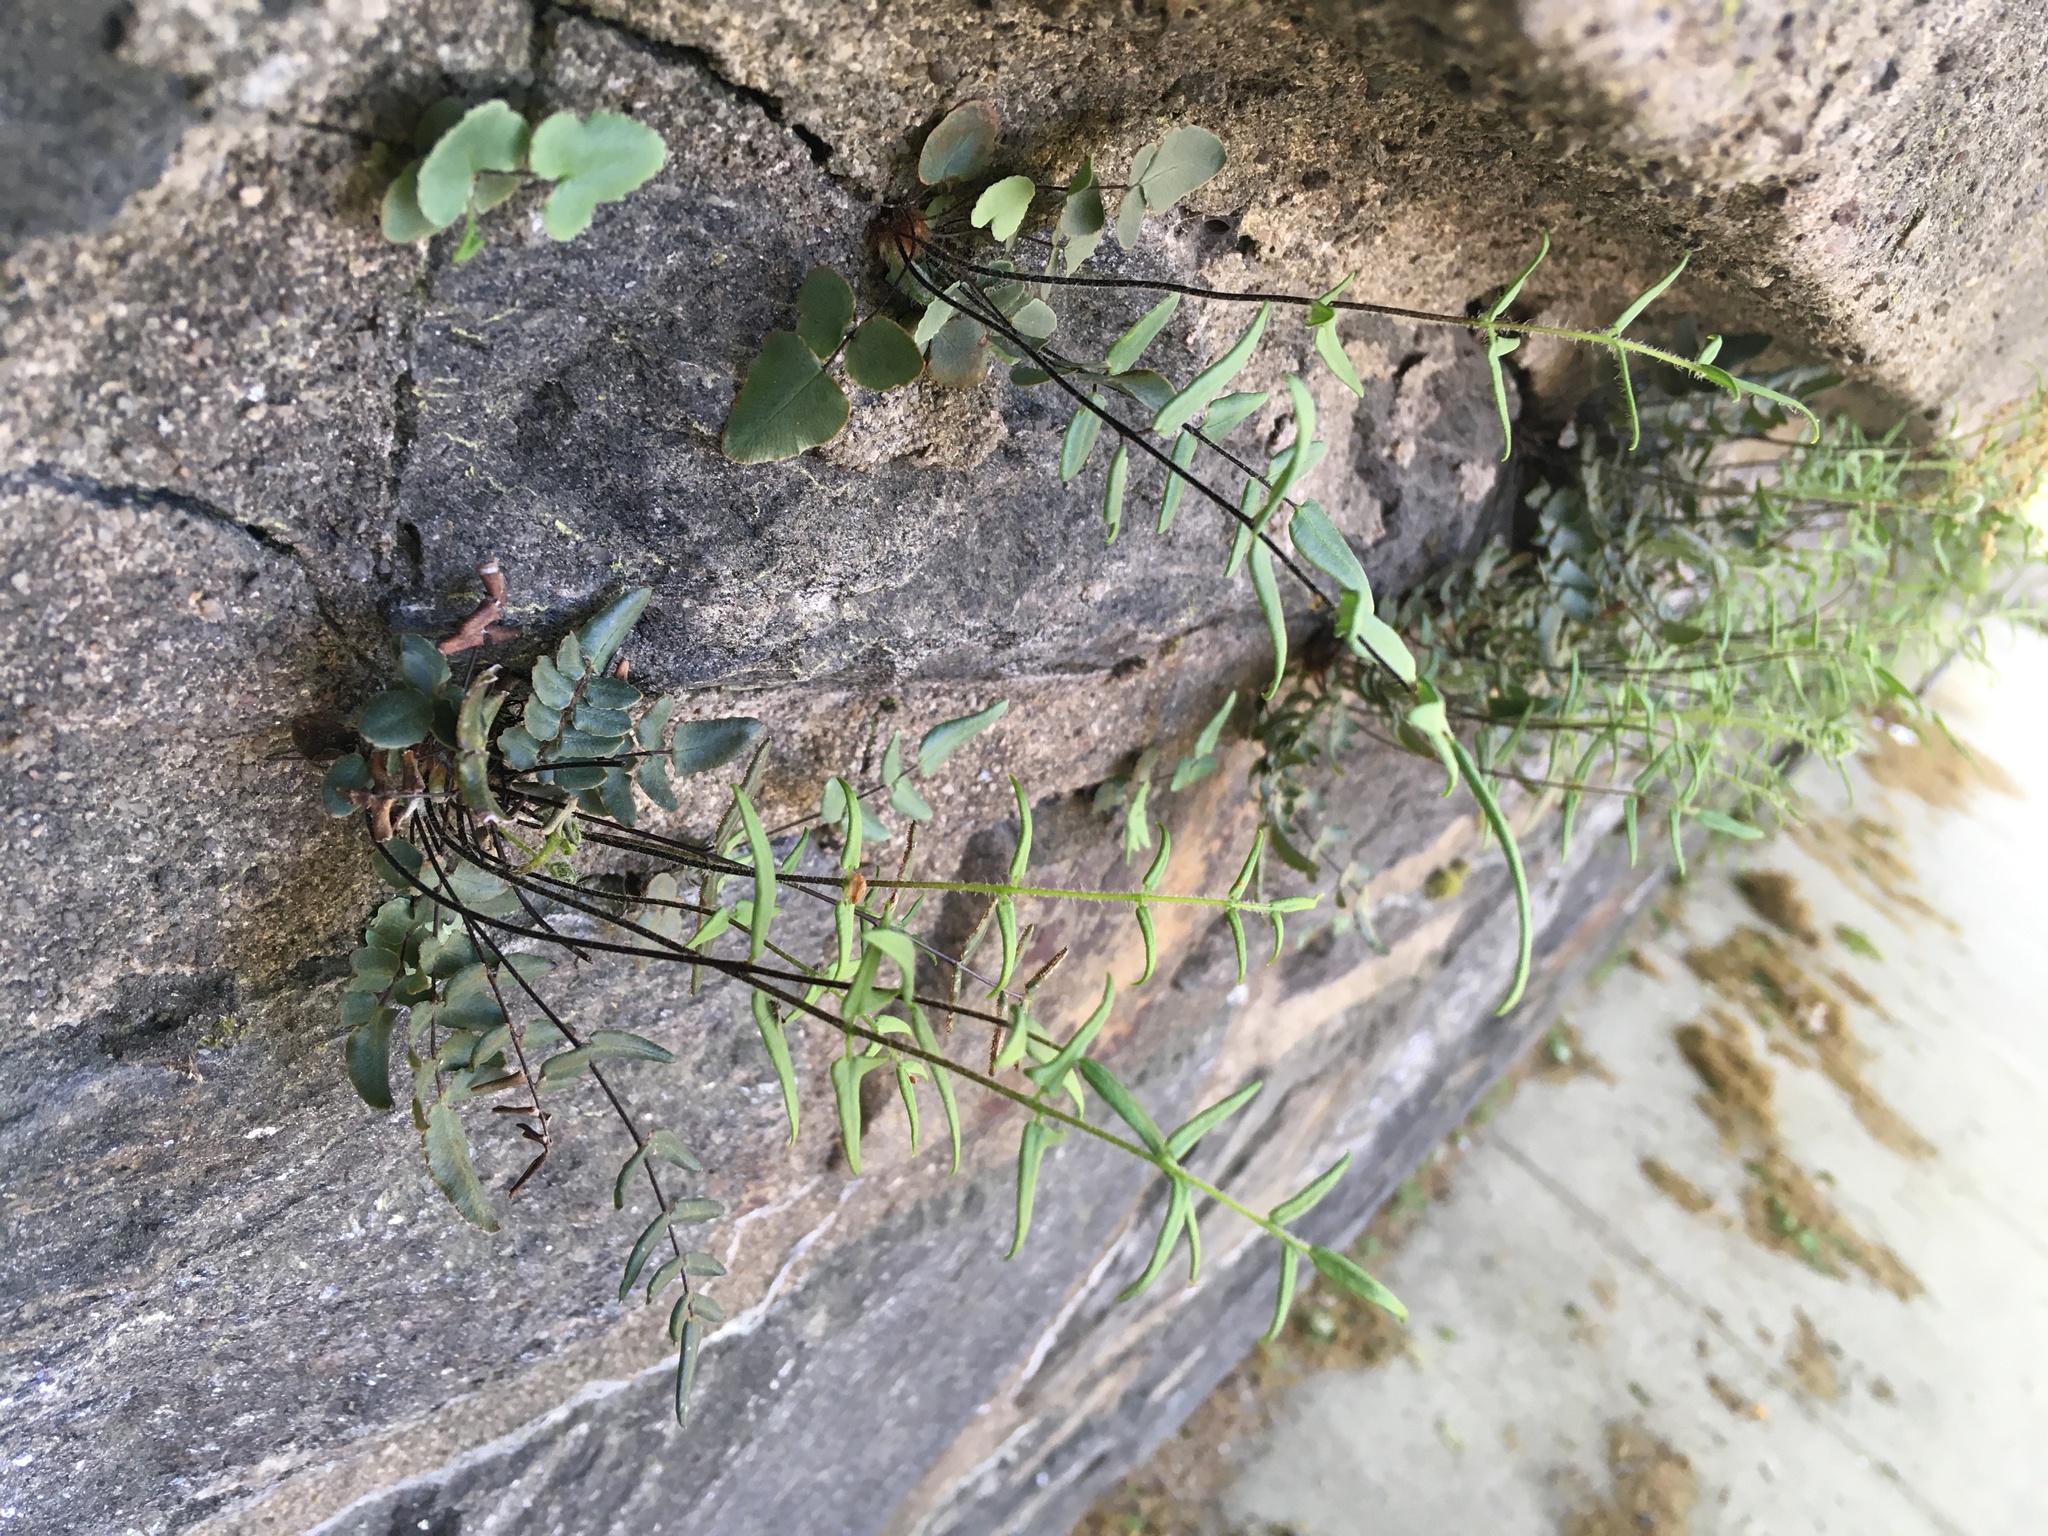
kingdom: Plantae
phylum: Tracheophyta
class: Polypodiopsida
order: Polypodiales
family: Pteridaceae
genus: Pellaea
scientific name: Pellaea atropurpurea
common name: Hairy cliffbrake
